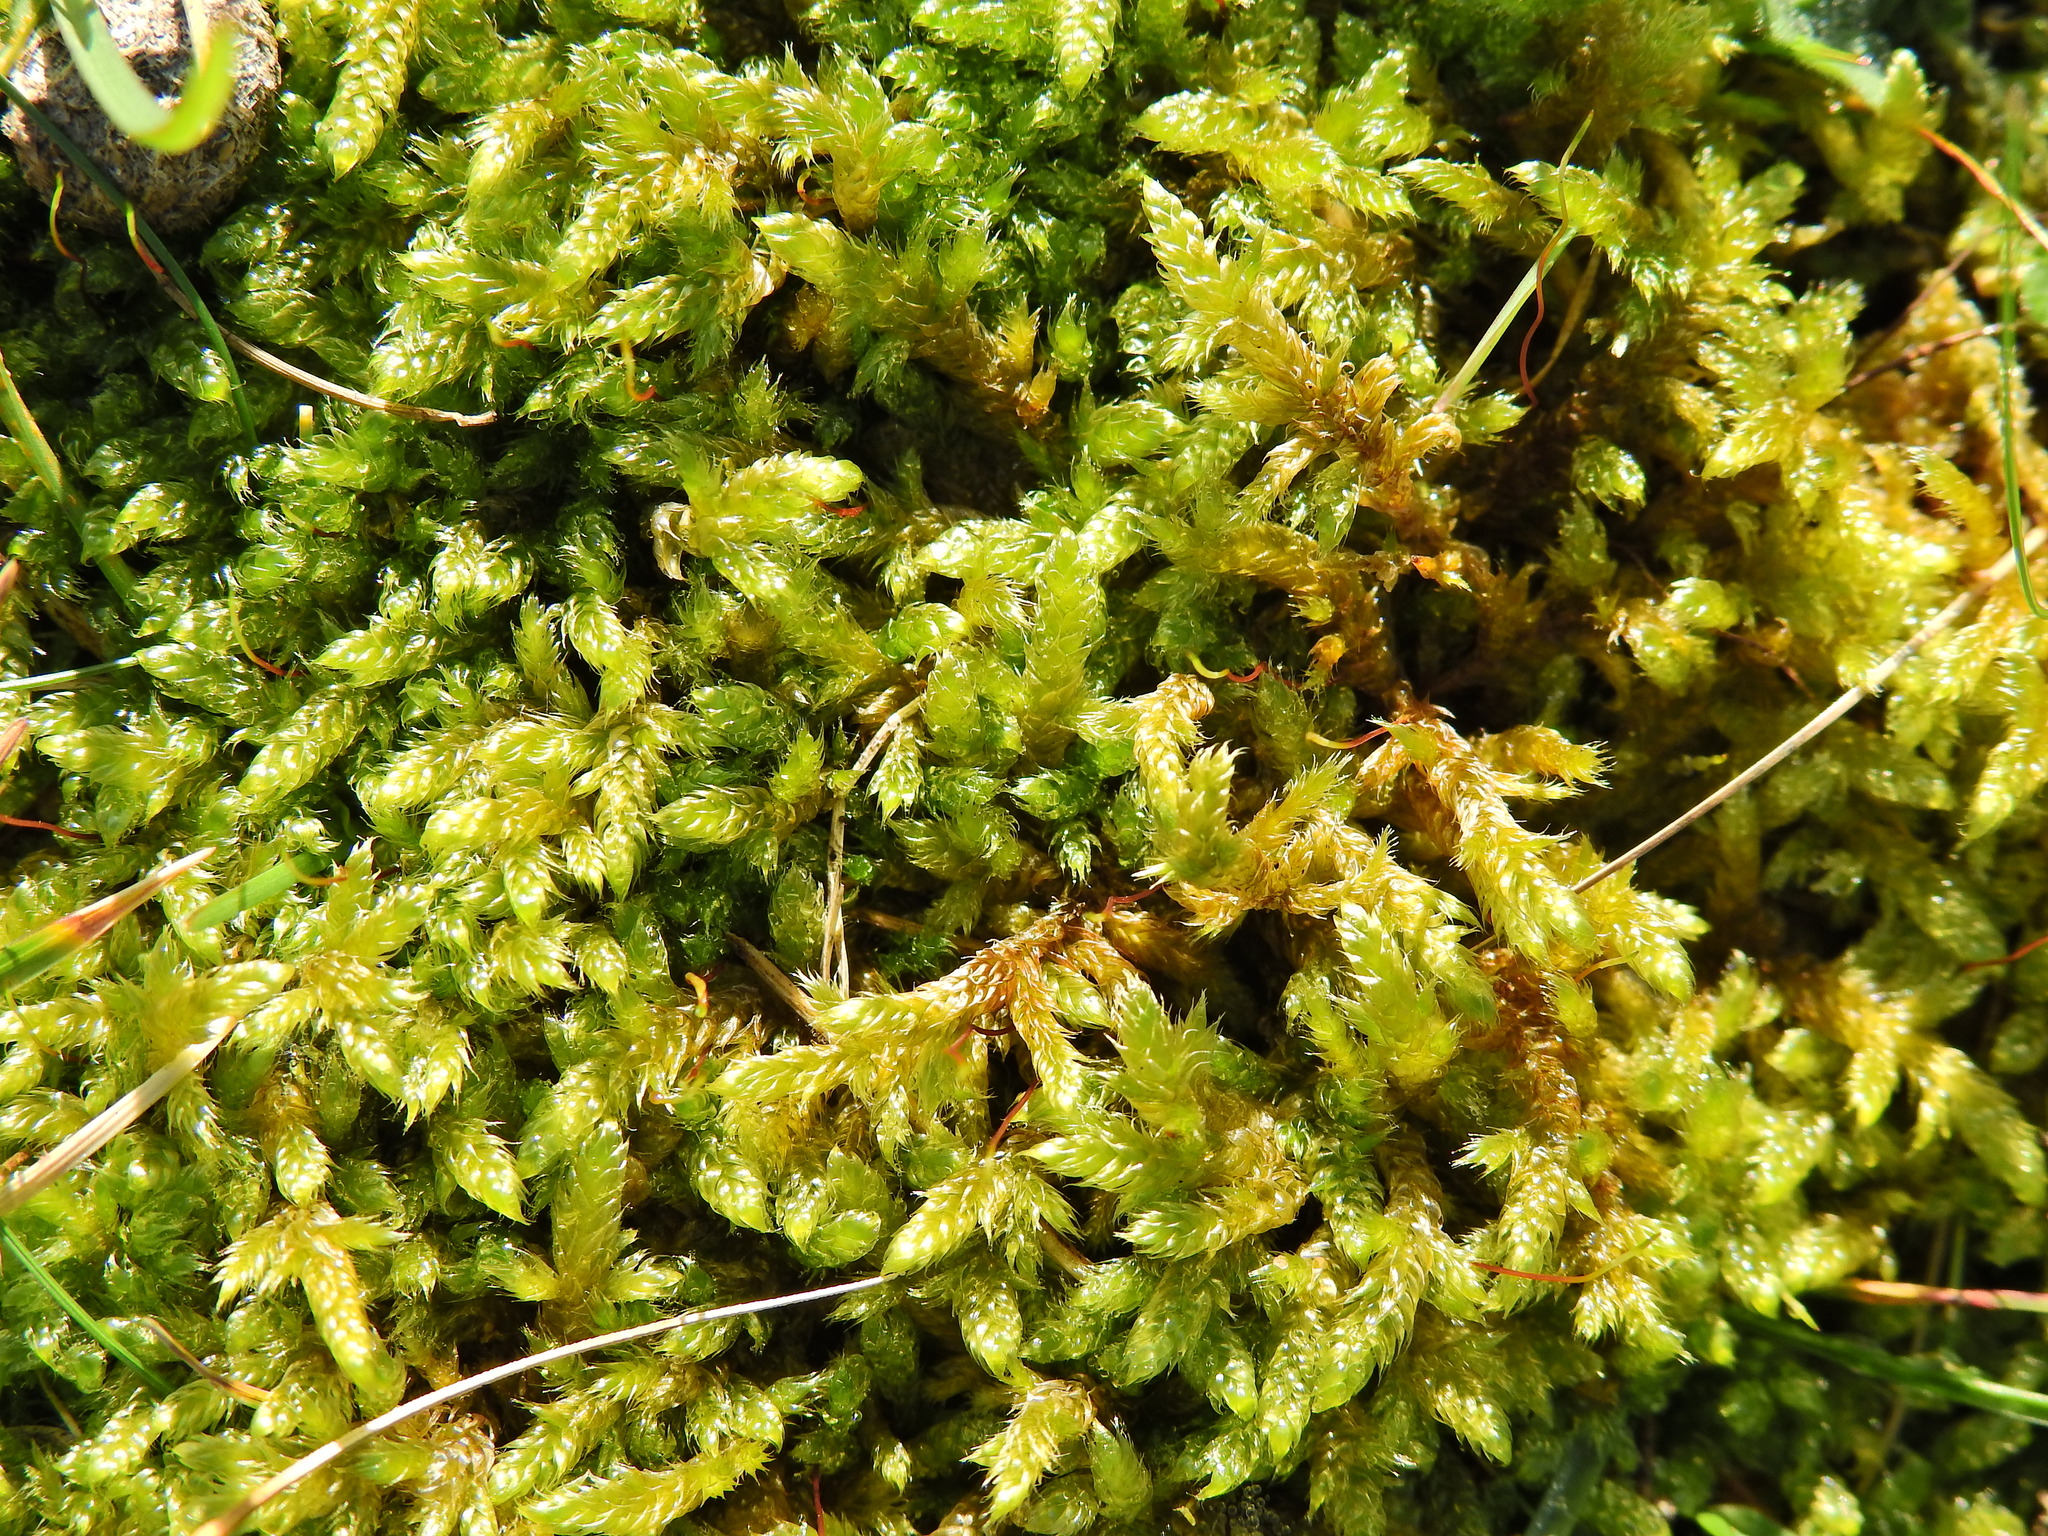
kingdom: Plantae
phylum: Bryophyta
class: Bryopsida
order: Hypnales
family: Hypnaceae
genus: Hypnum
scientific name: Hypnum cupressiforme
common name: Cypress-leaved plait-moss
